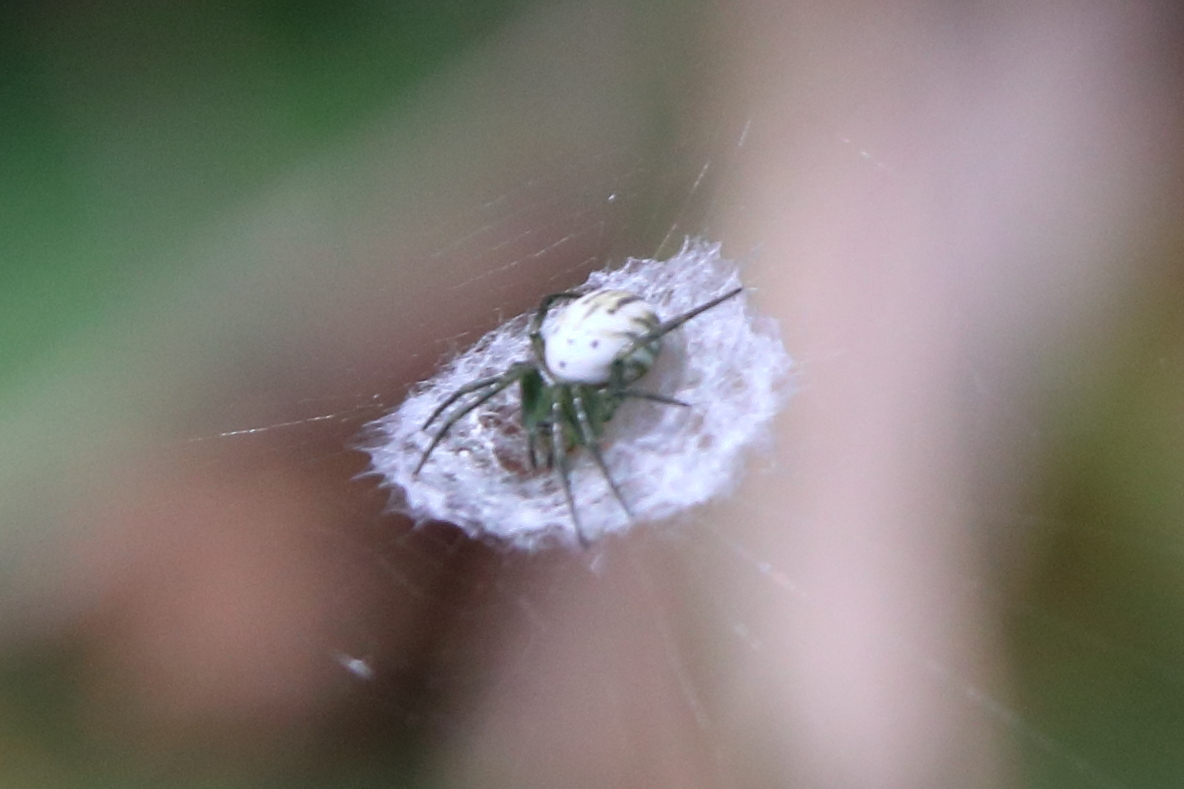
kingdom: Animalia
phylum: Arthropoda
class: Arachnida
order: Araneae
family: Araneidae
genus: Mangora
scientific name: Mangora gibberosa
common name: Lined orbweaver
